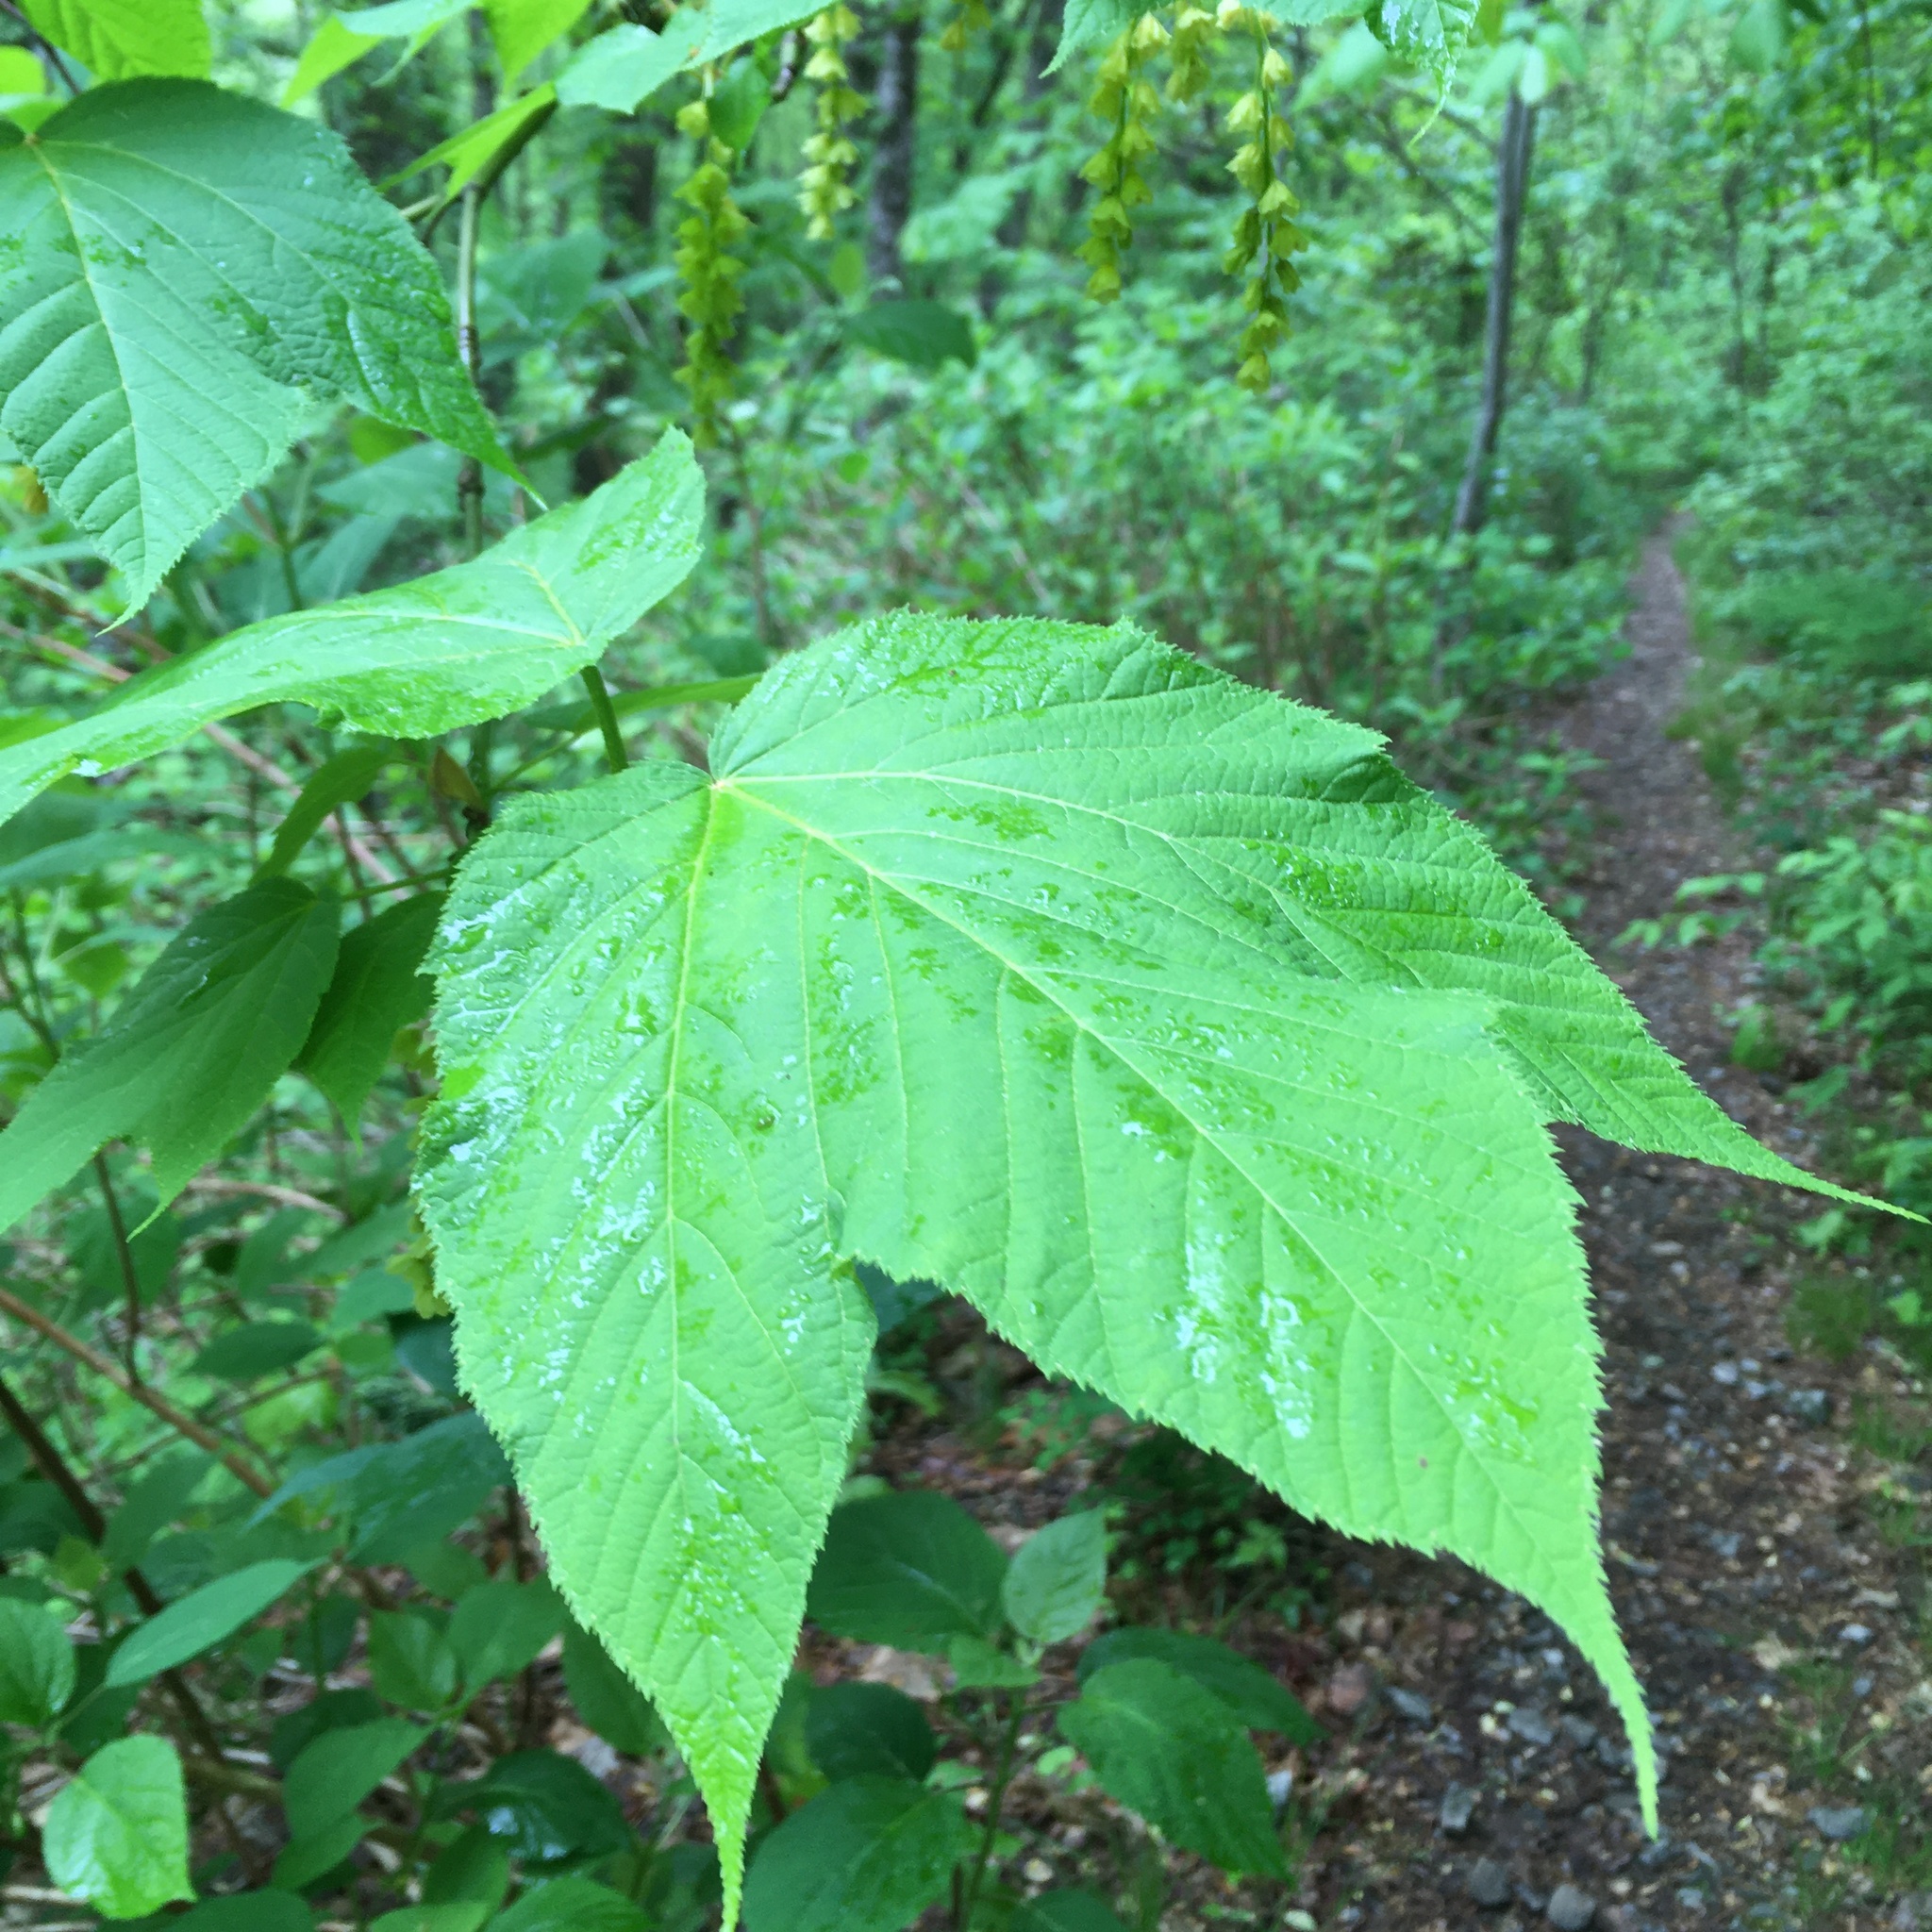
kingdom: Plantae
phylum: Tracheophyta
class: Magnoliopsida
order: Sapindales
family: Sapindaceae
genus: Acer
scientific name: Acer pensylvanicum
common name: Moosewood
